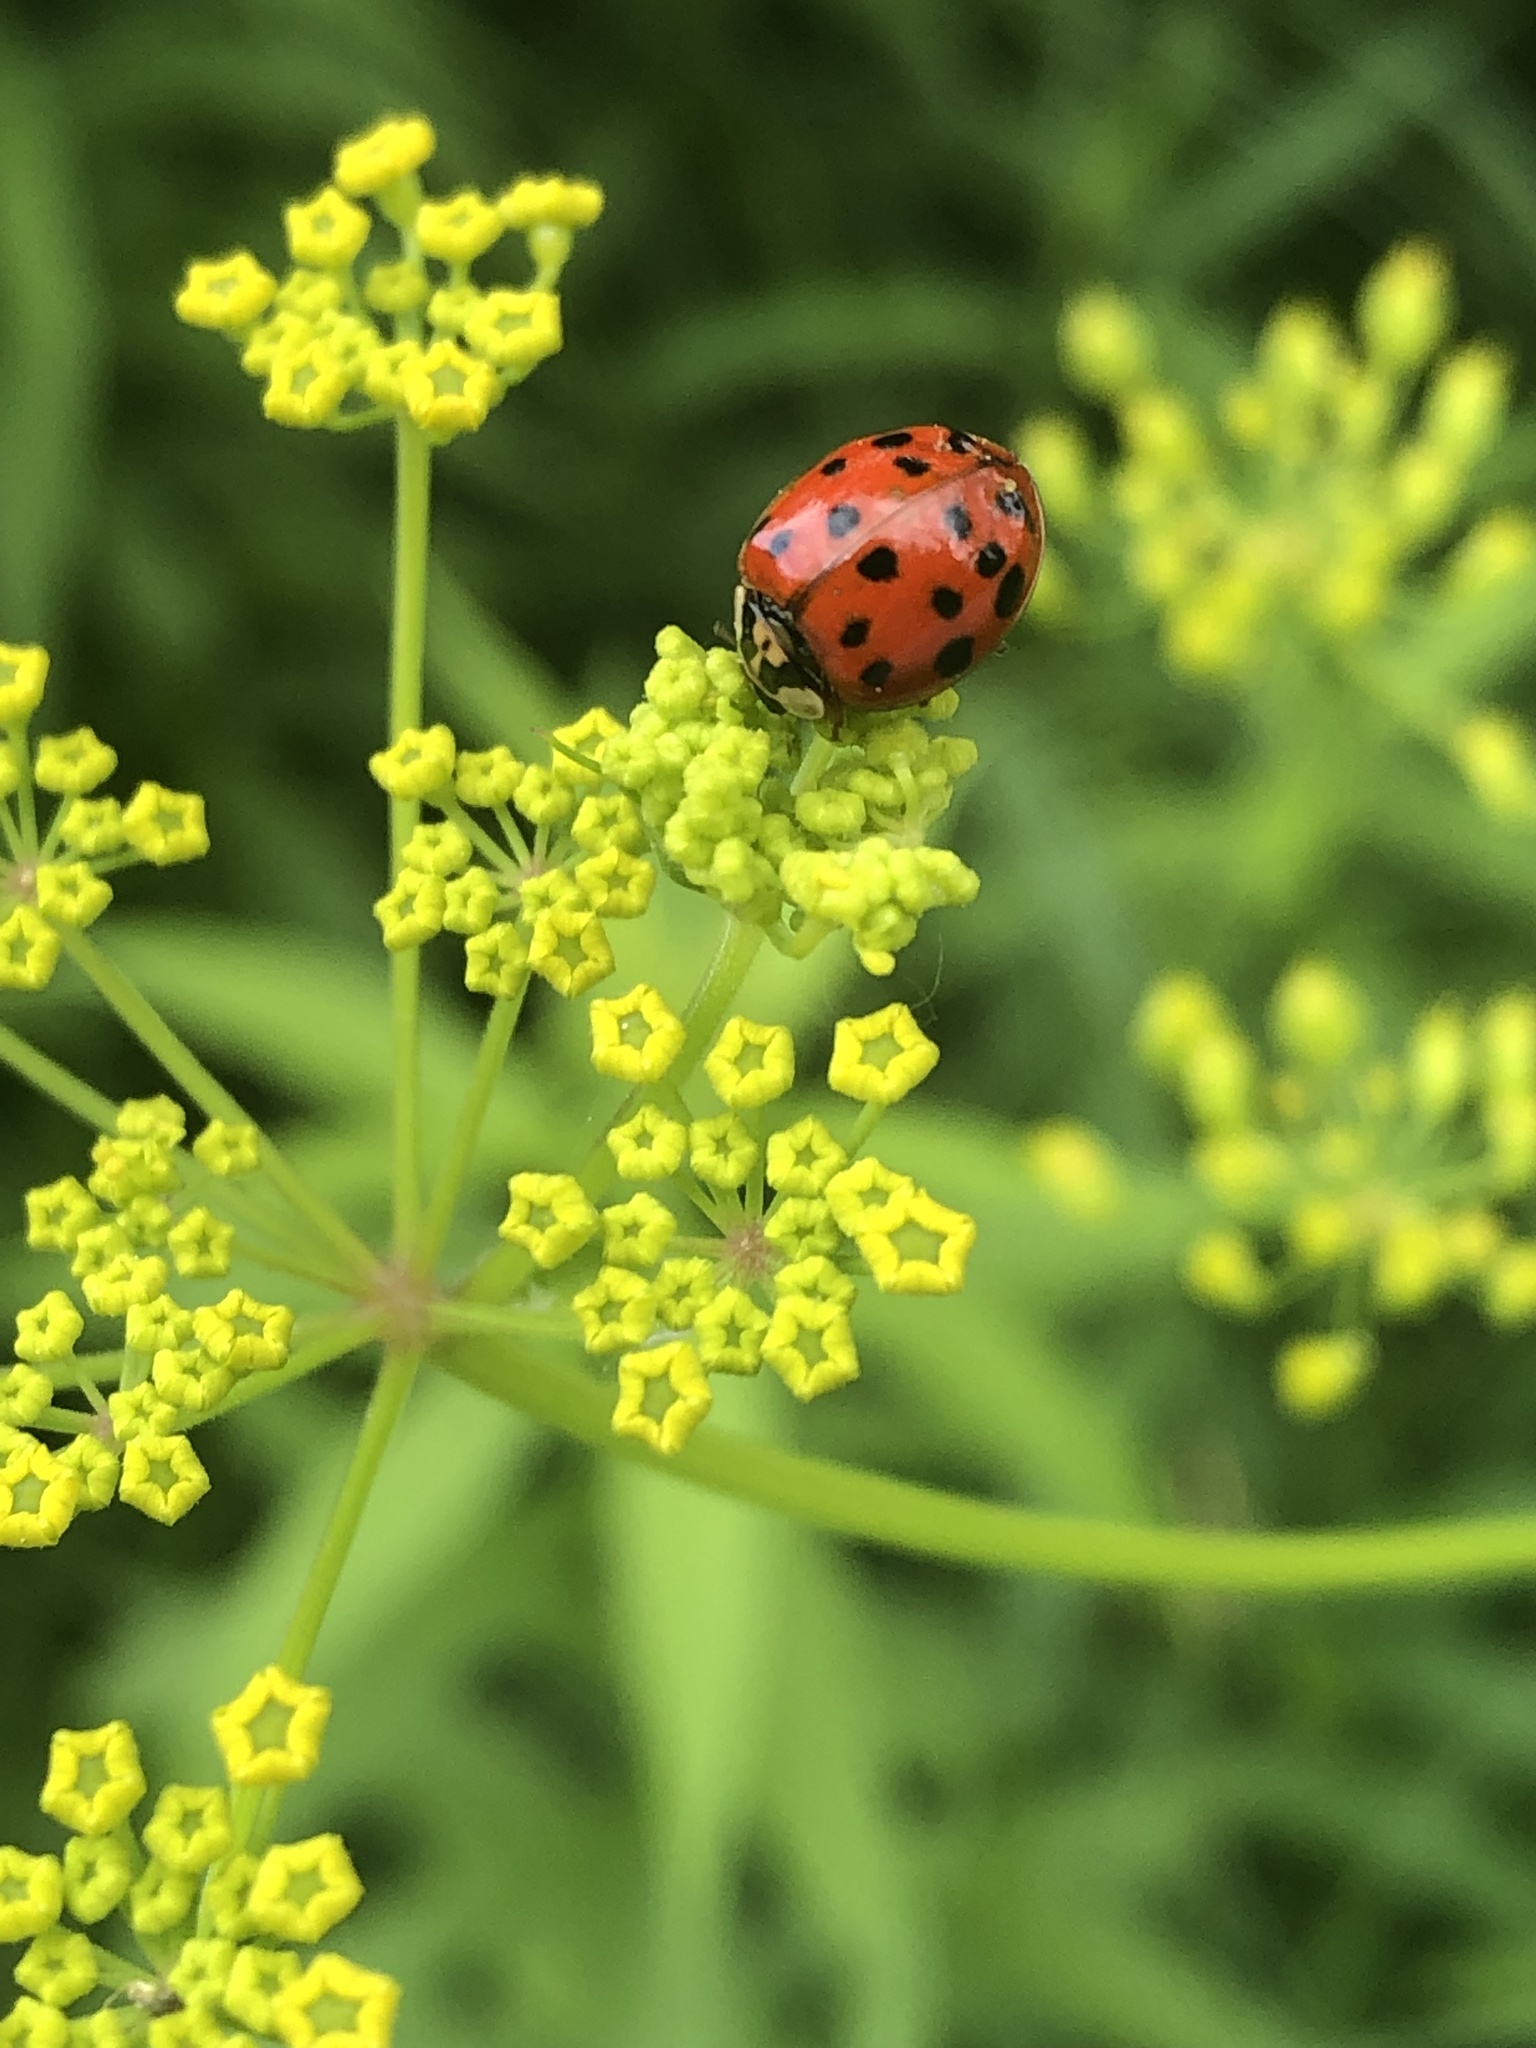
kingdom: Animalia
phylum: Arthropoda
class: Insecta
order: Coleoptera
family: Coccinellidae
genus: Harmonia
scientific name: Harmonia axyridis
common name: Harlequin ladybird
